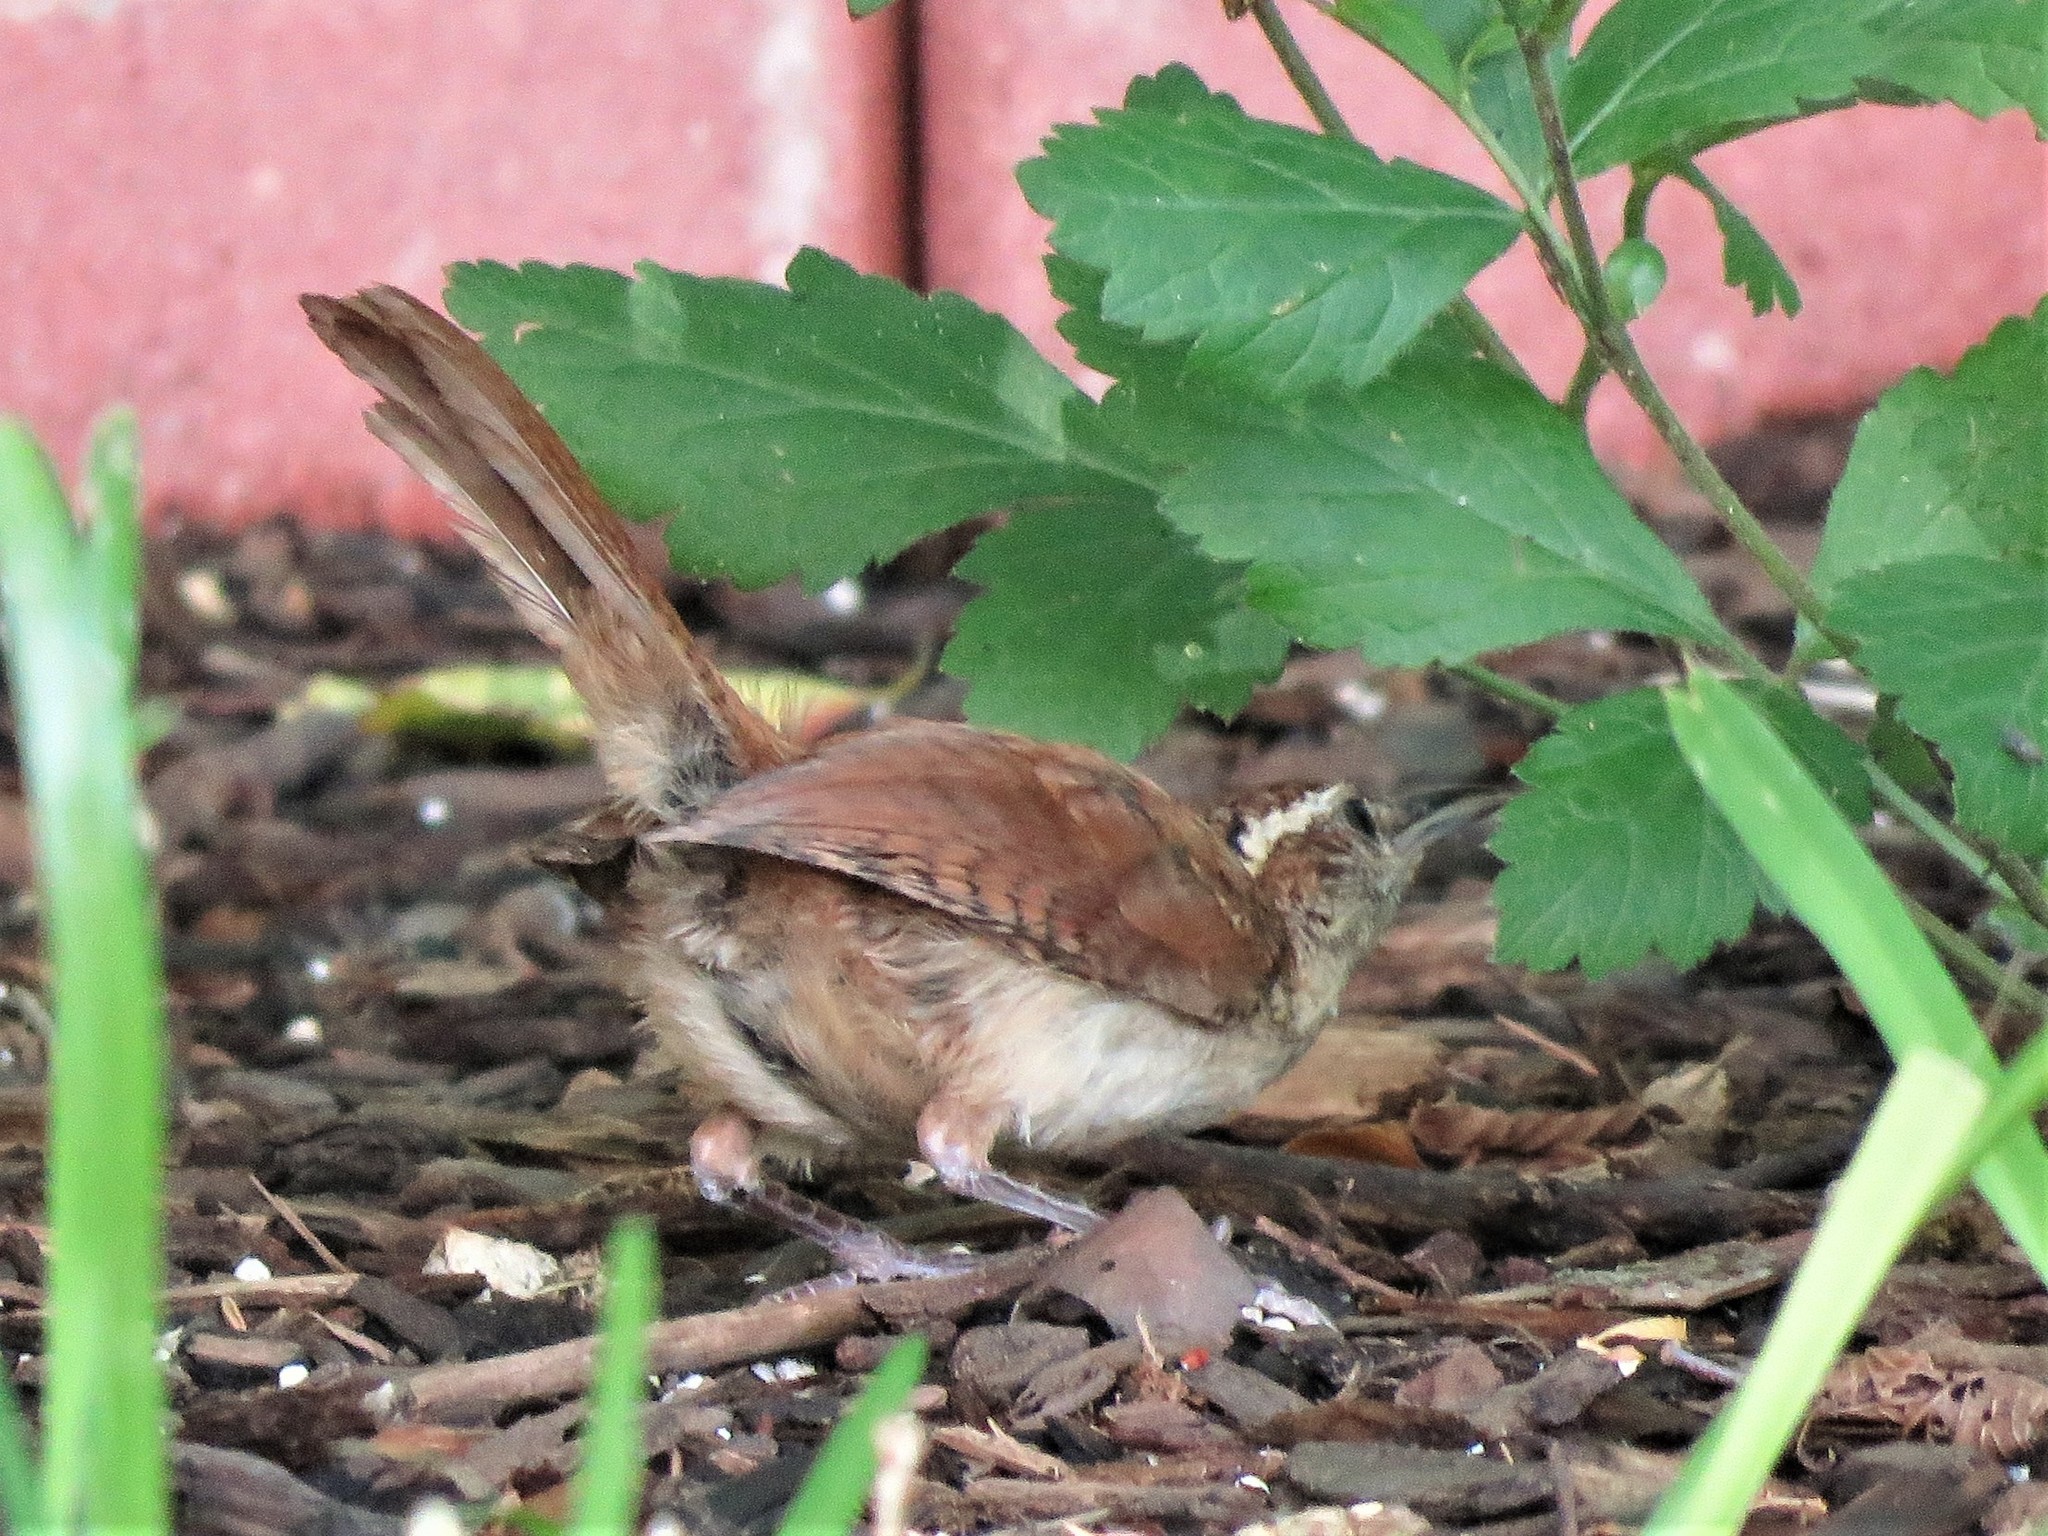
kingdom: Animalia
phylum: Chordata
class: Aves
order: Passeriformes
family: Troglodytidae
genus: Thryothorus
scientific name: Thryothorus ludovicianus
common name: Carolina wren
